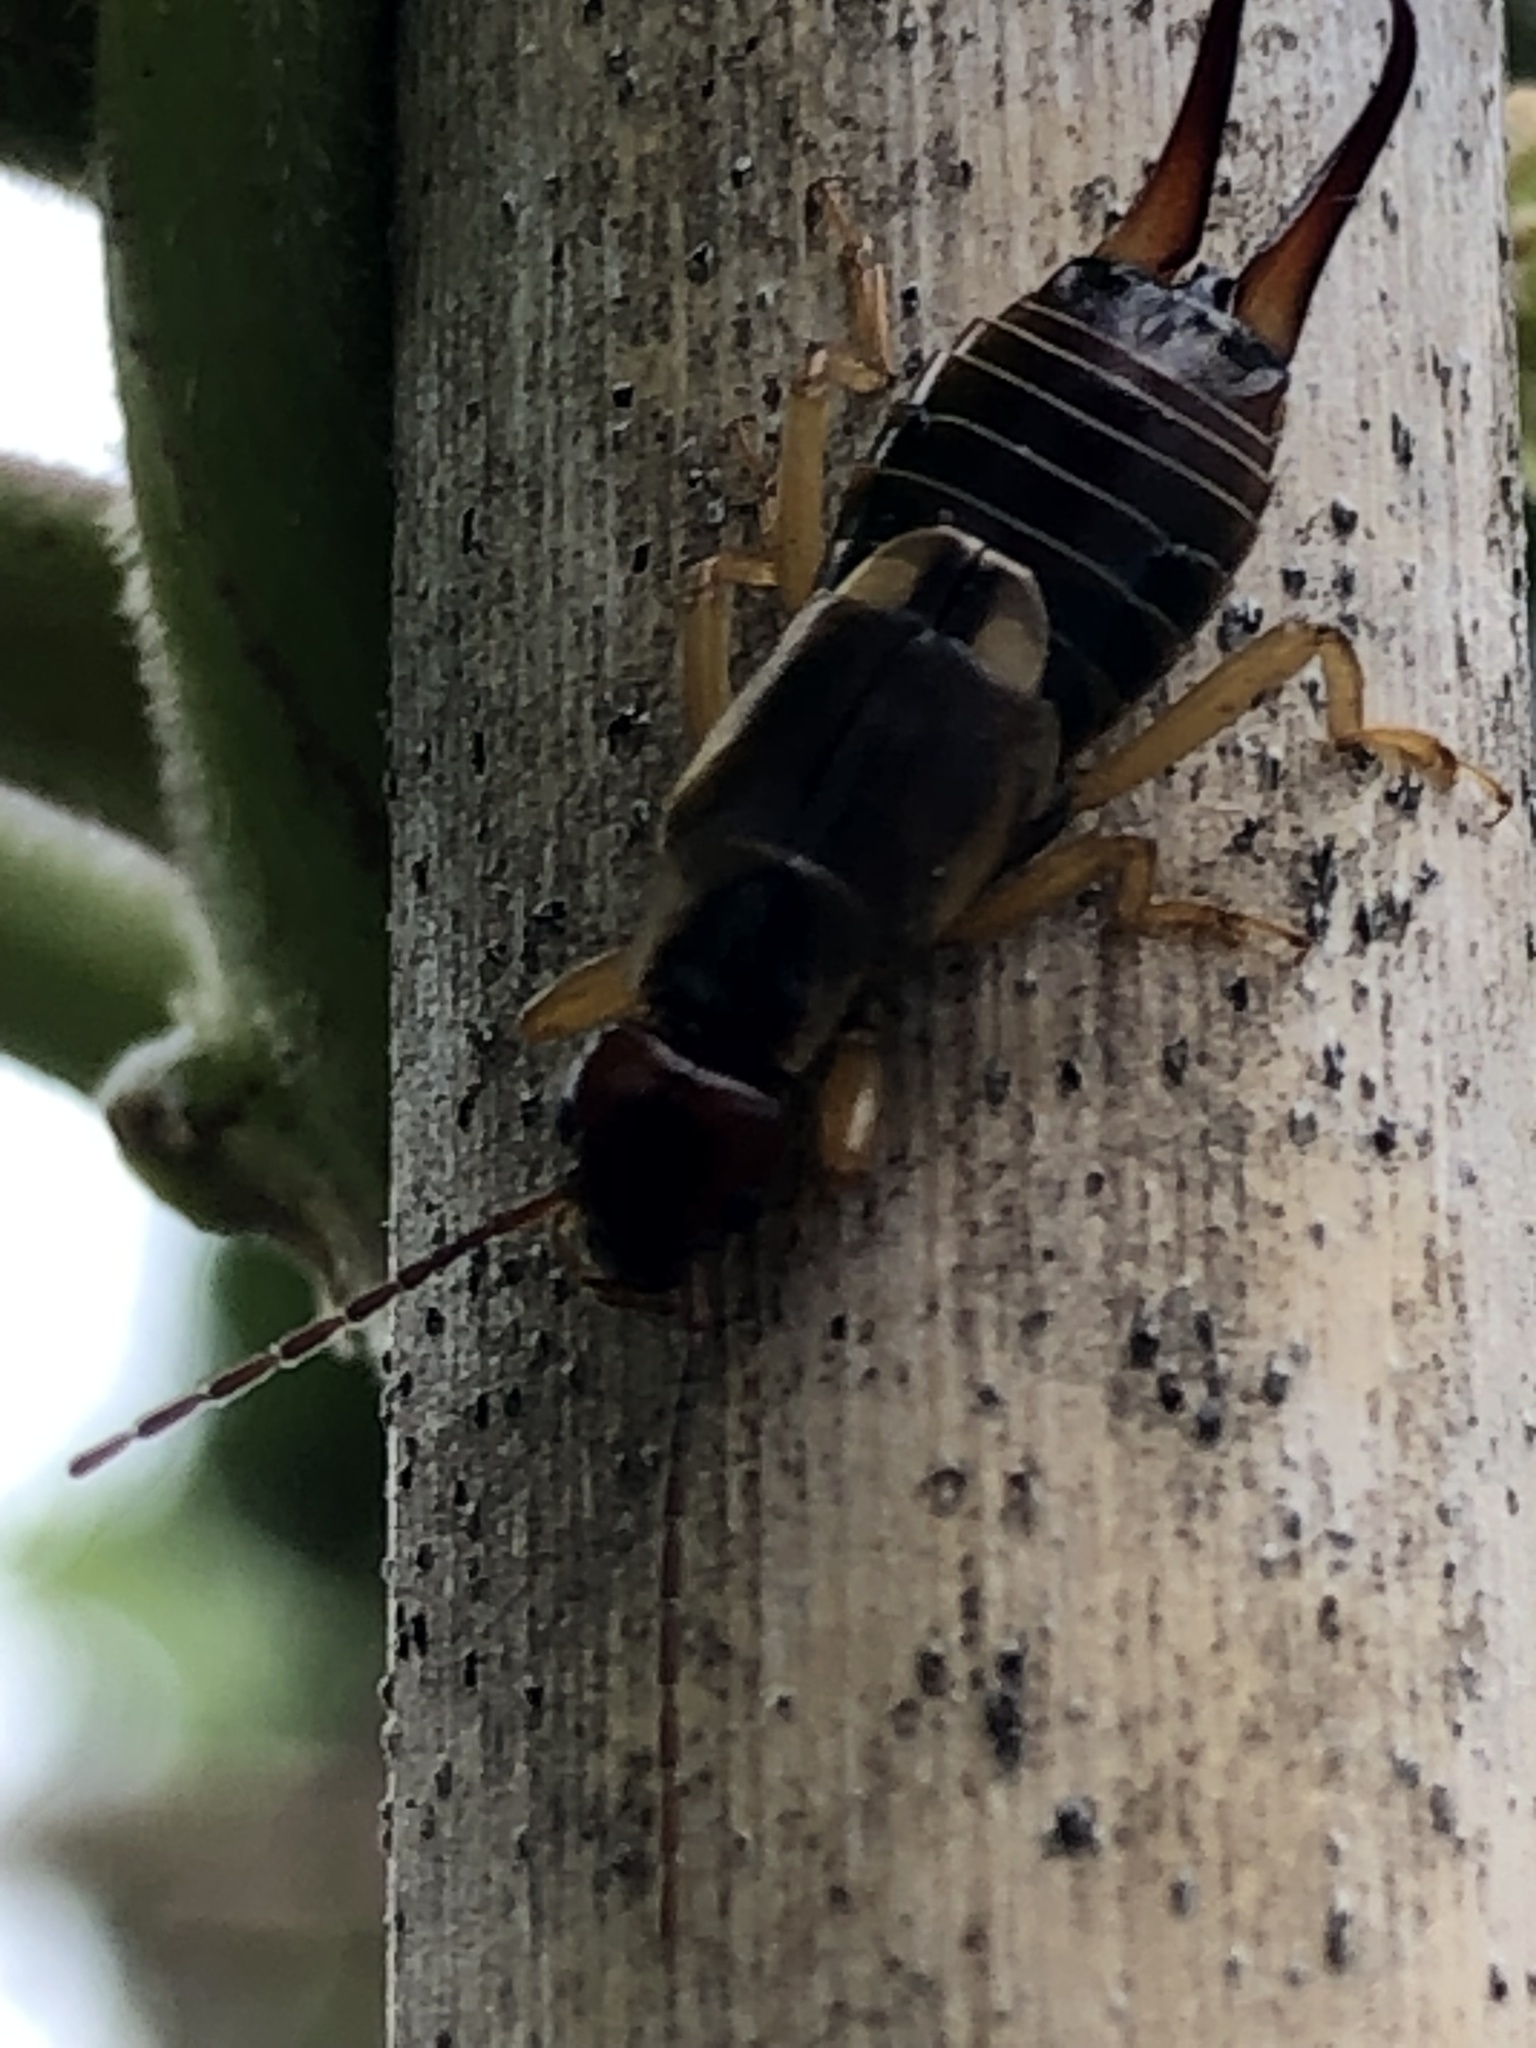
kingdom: Animalia
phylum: Arthropoda
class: Insecta
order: Dermaptera
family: Forficulidae
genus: Forficula
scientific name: Forficula
